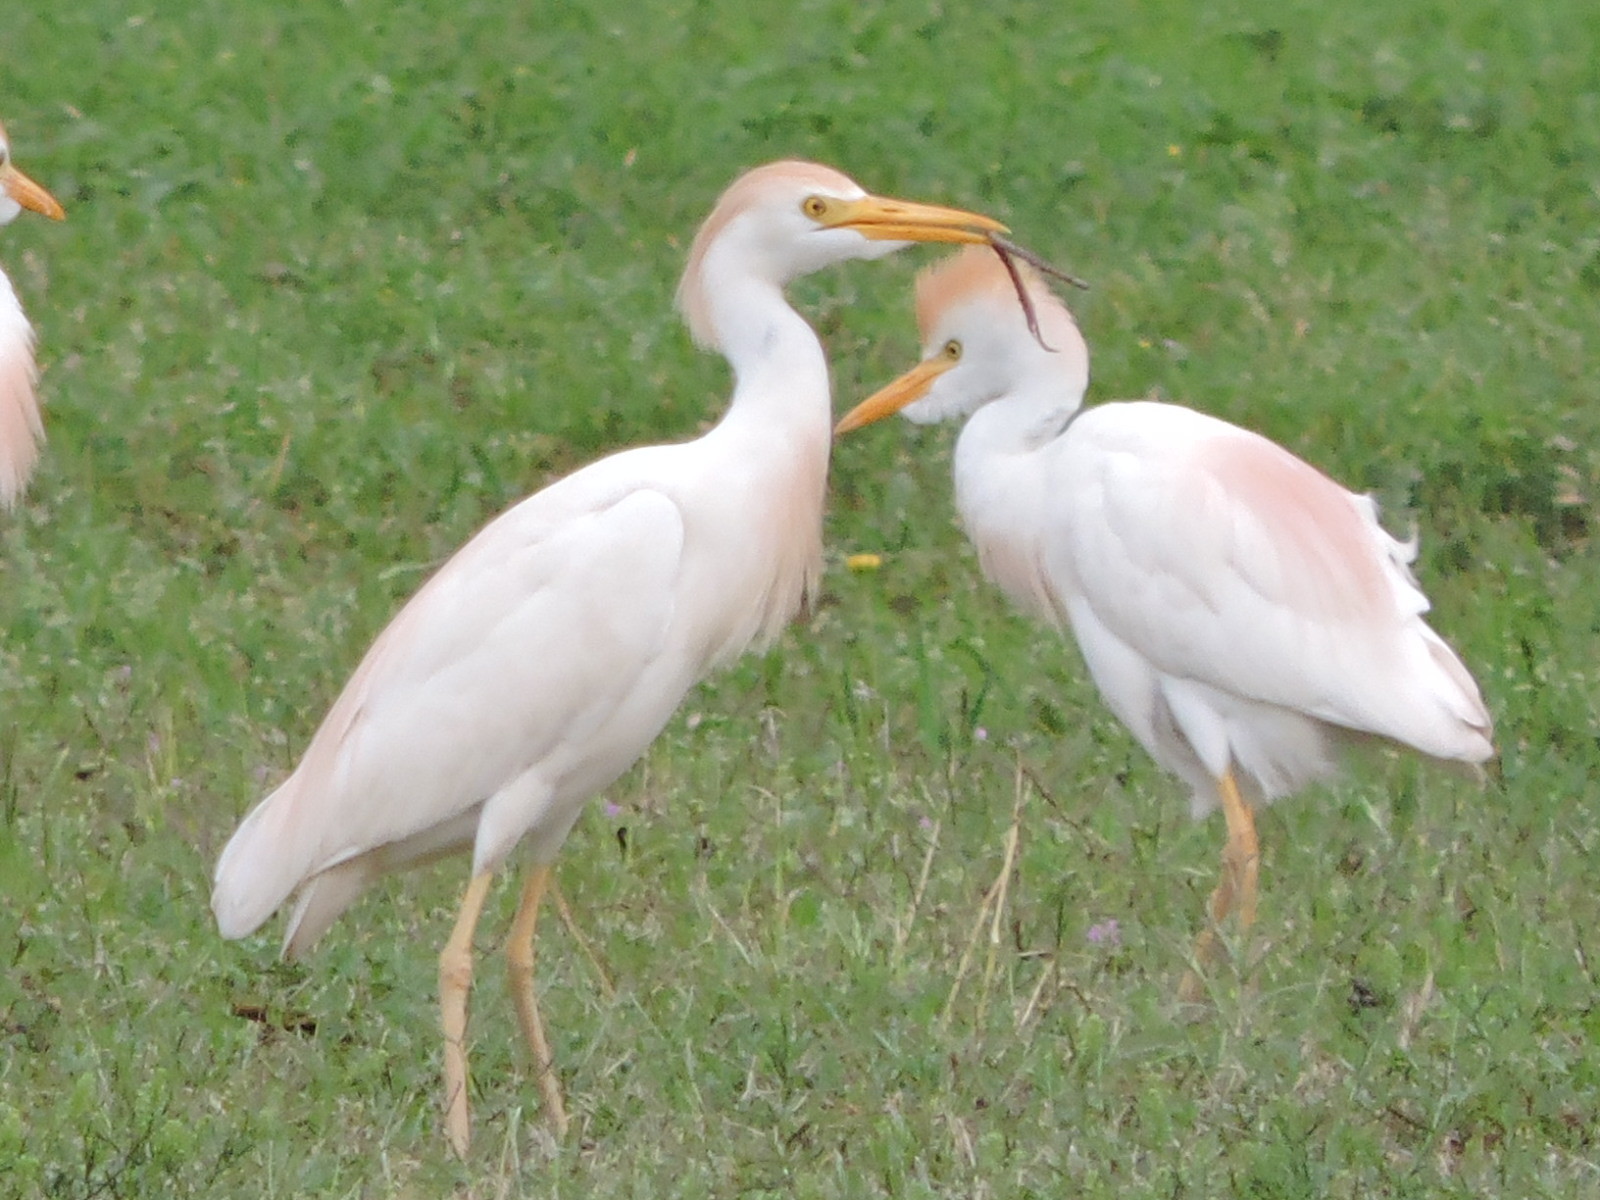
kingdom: Animalia
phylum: Chordata
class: Aves
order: Pelecaniformes
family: Ardeidae
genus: Bubulcus
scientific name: Bubulcus ibis
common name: Cattle egret
